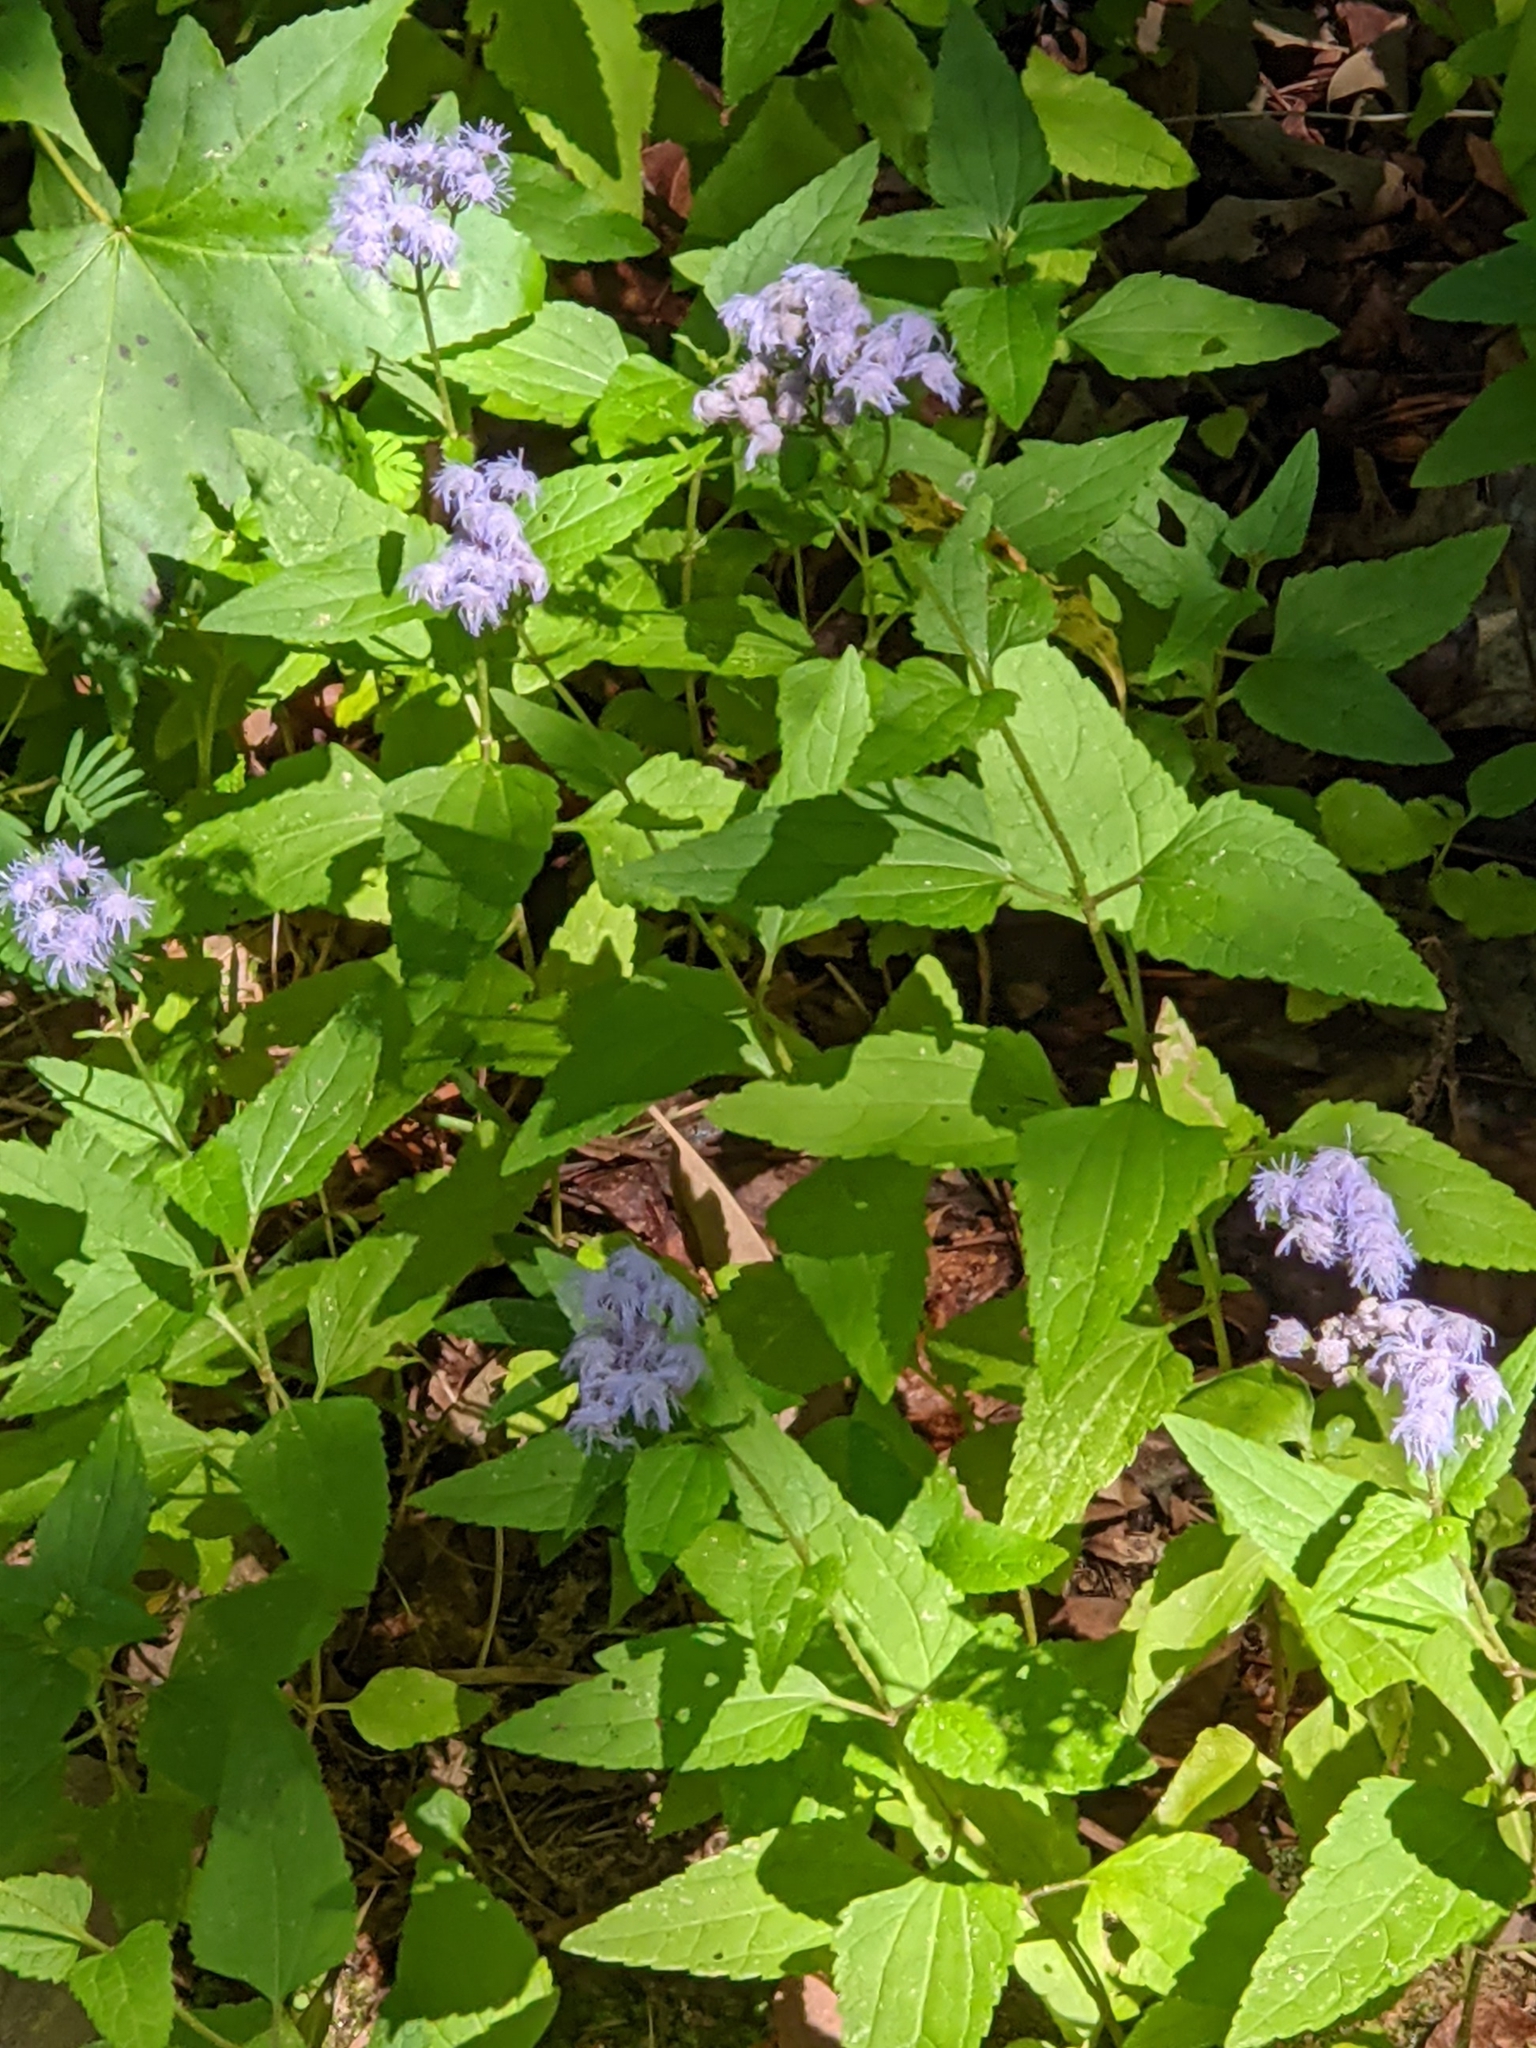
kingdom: Plantae
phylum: Tracheophyta
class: Magnoliopsida
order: Asterales
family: Asteraceae
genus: Conoclinium
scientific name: Conoclinium coelestinum
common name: Blue mistflower
